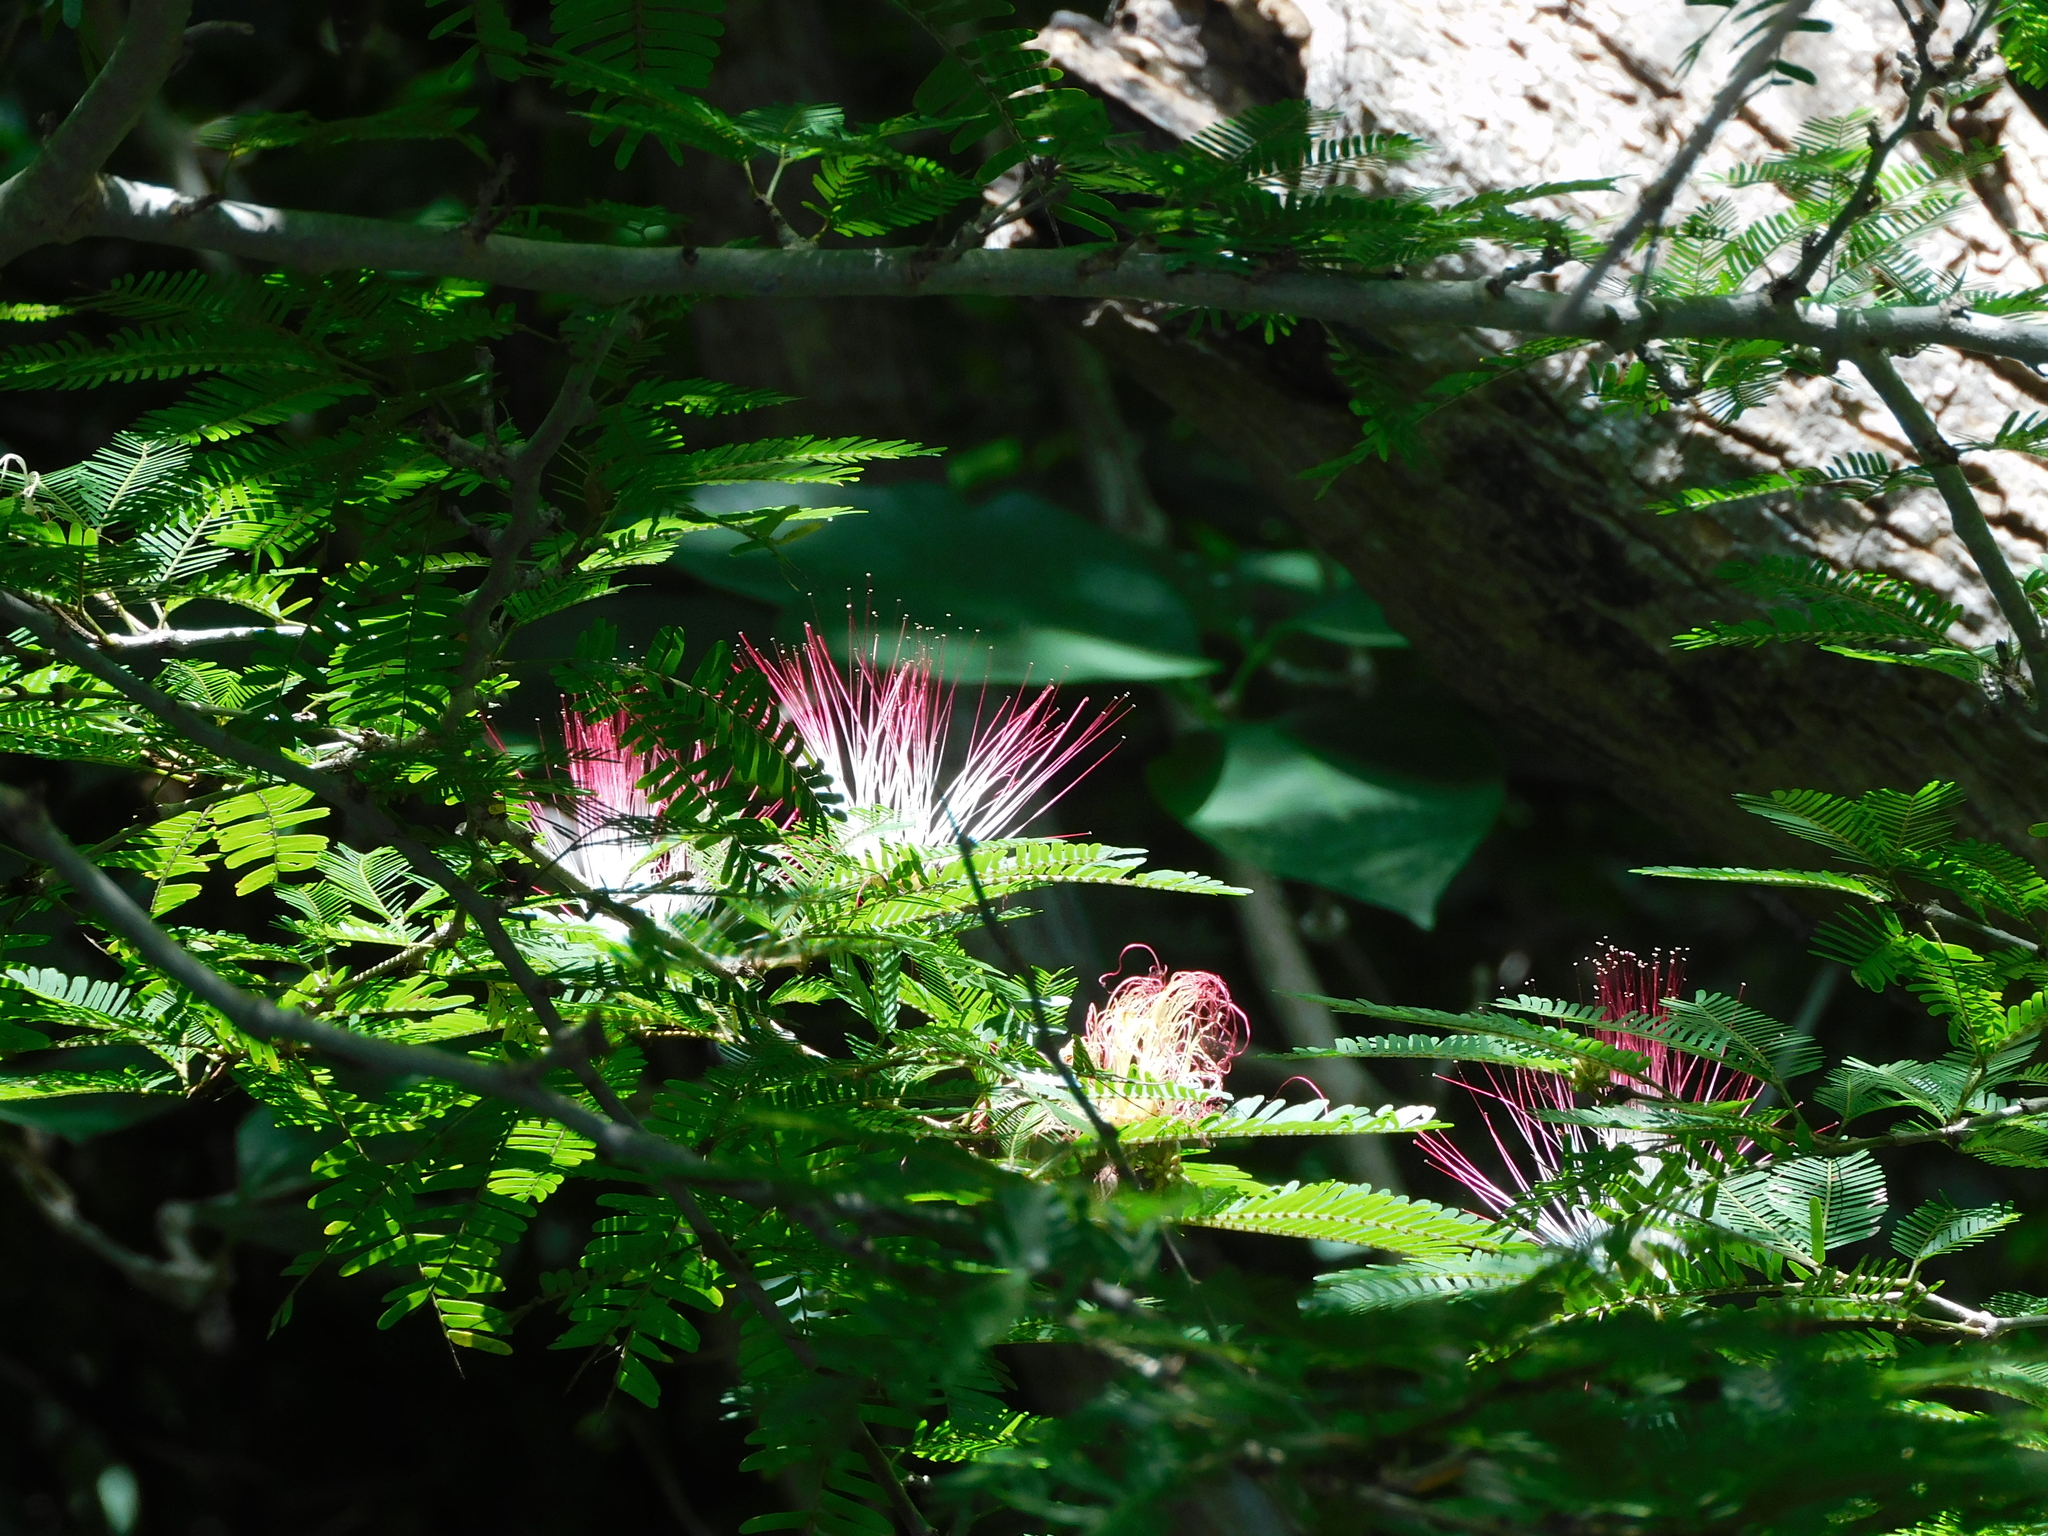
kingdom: Plantae
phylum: Tracheophyta
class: Magnoliopsida
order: Fabales
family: Fabaceae
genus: Calliandra
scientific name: Calliandra magdalenae
